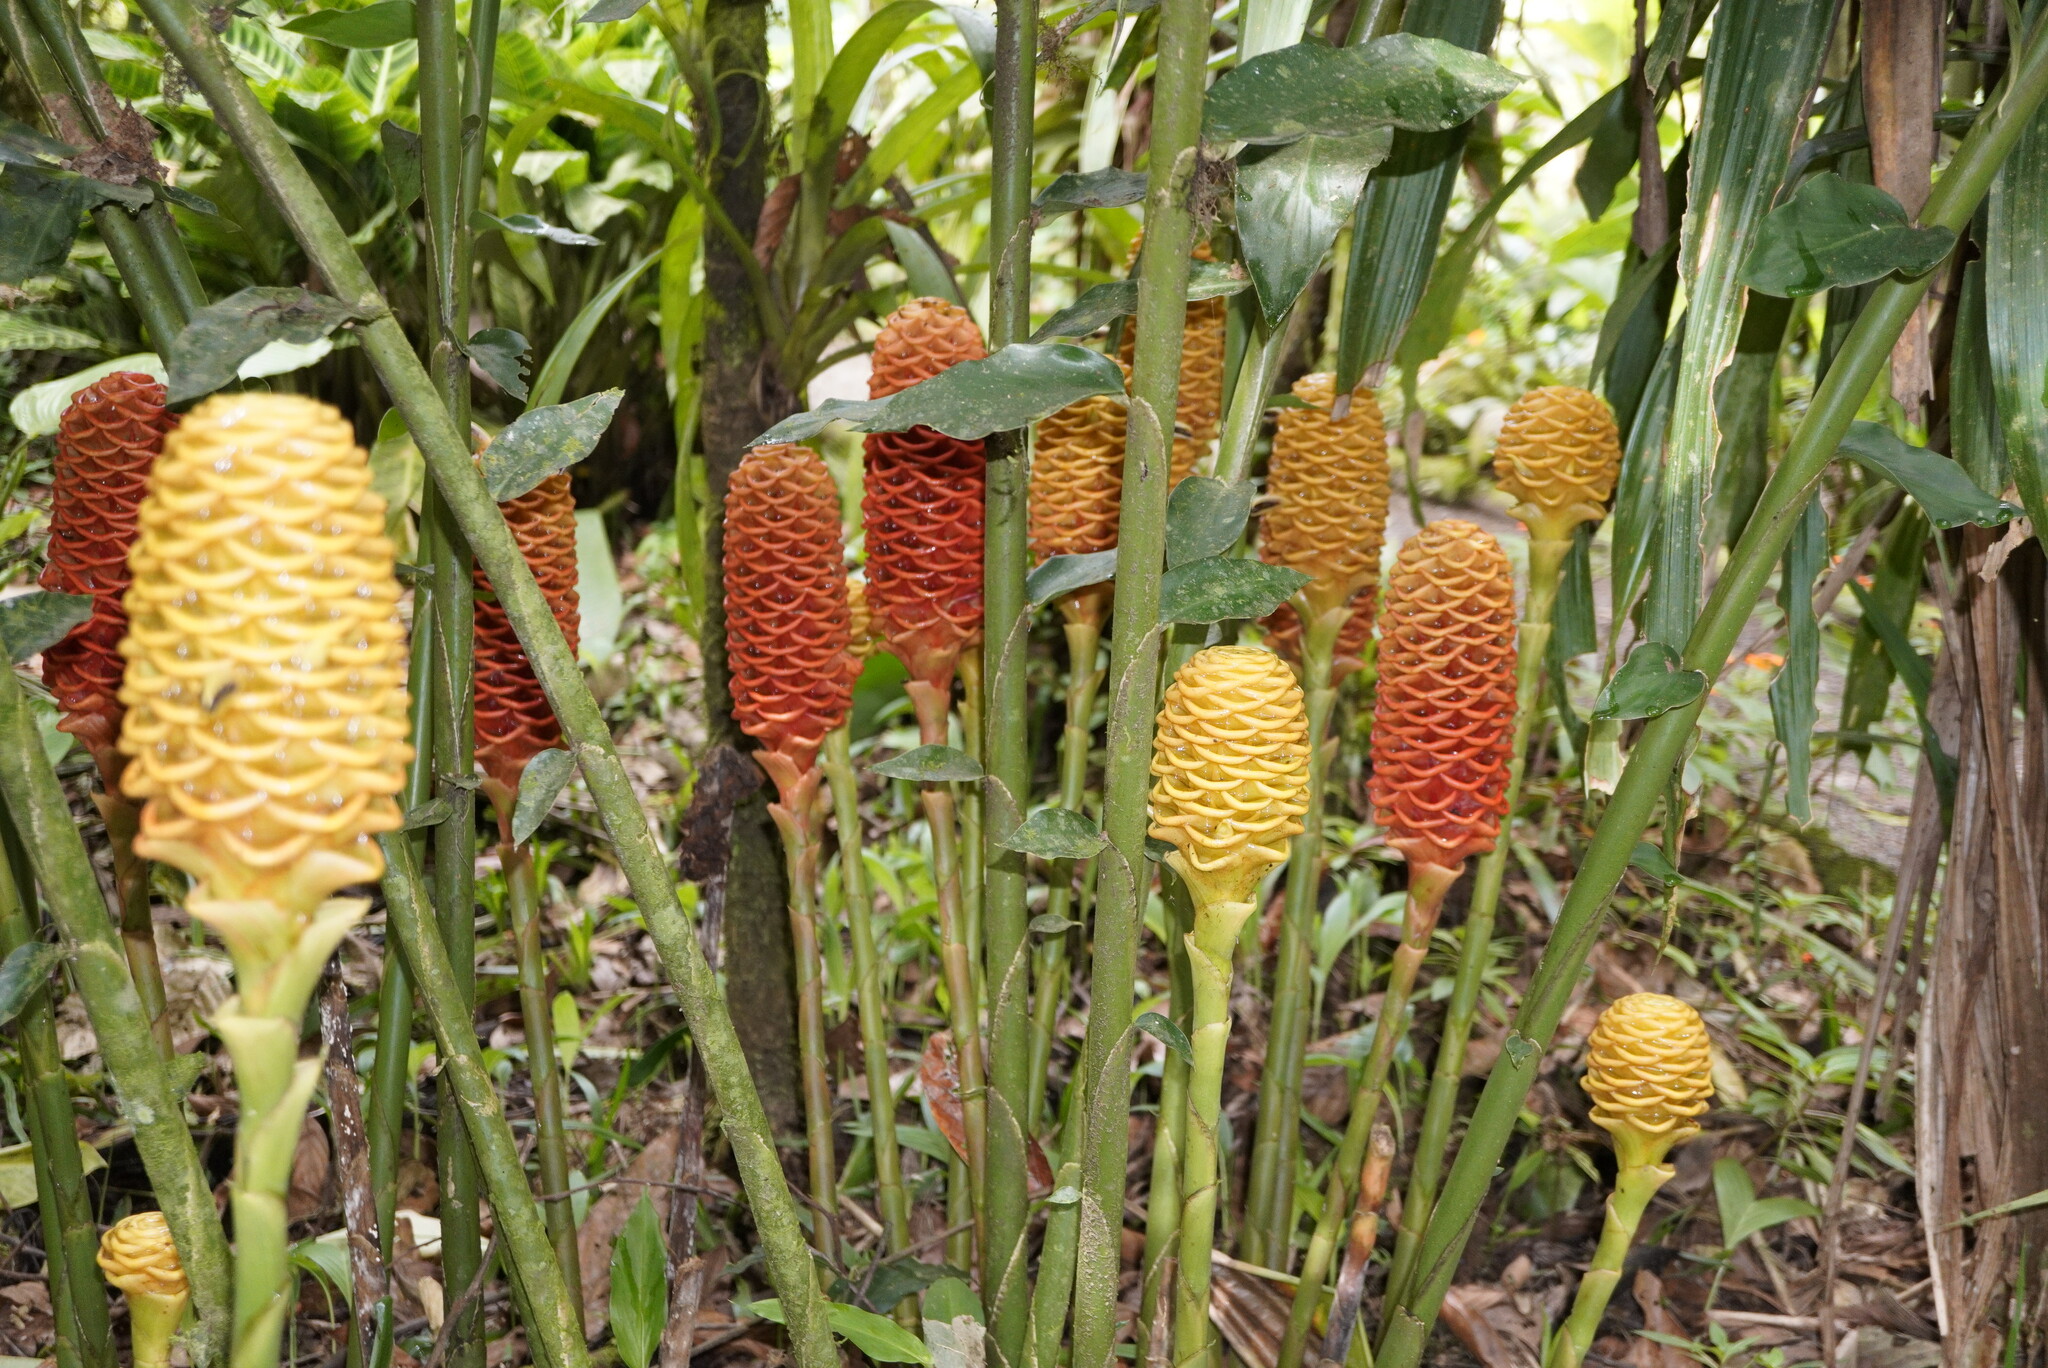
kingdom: Plantae
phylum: Tracheophyta
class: Liliopsida
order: Zingiberales
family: Zingiberaceae
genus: Zingiber
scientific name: Zingiber spectabile
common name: Beehive ginger
